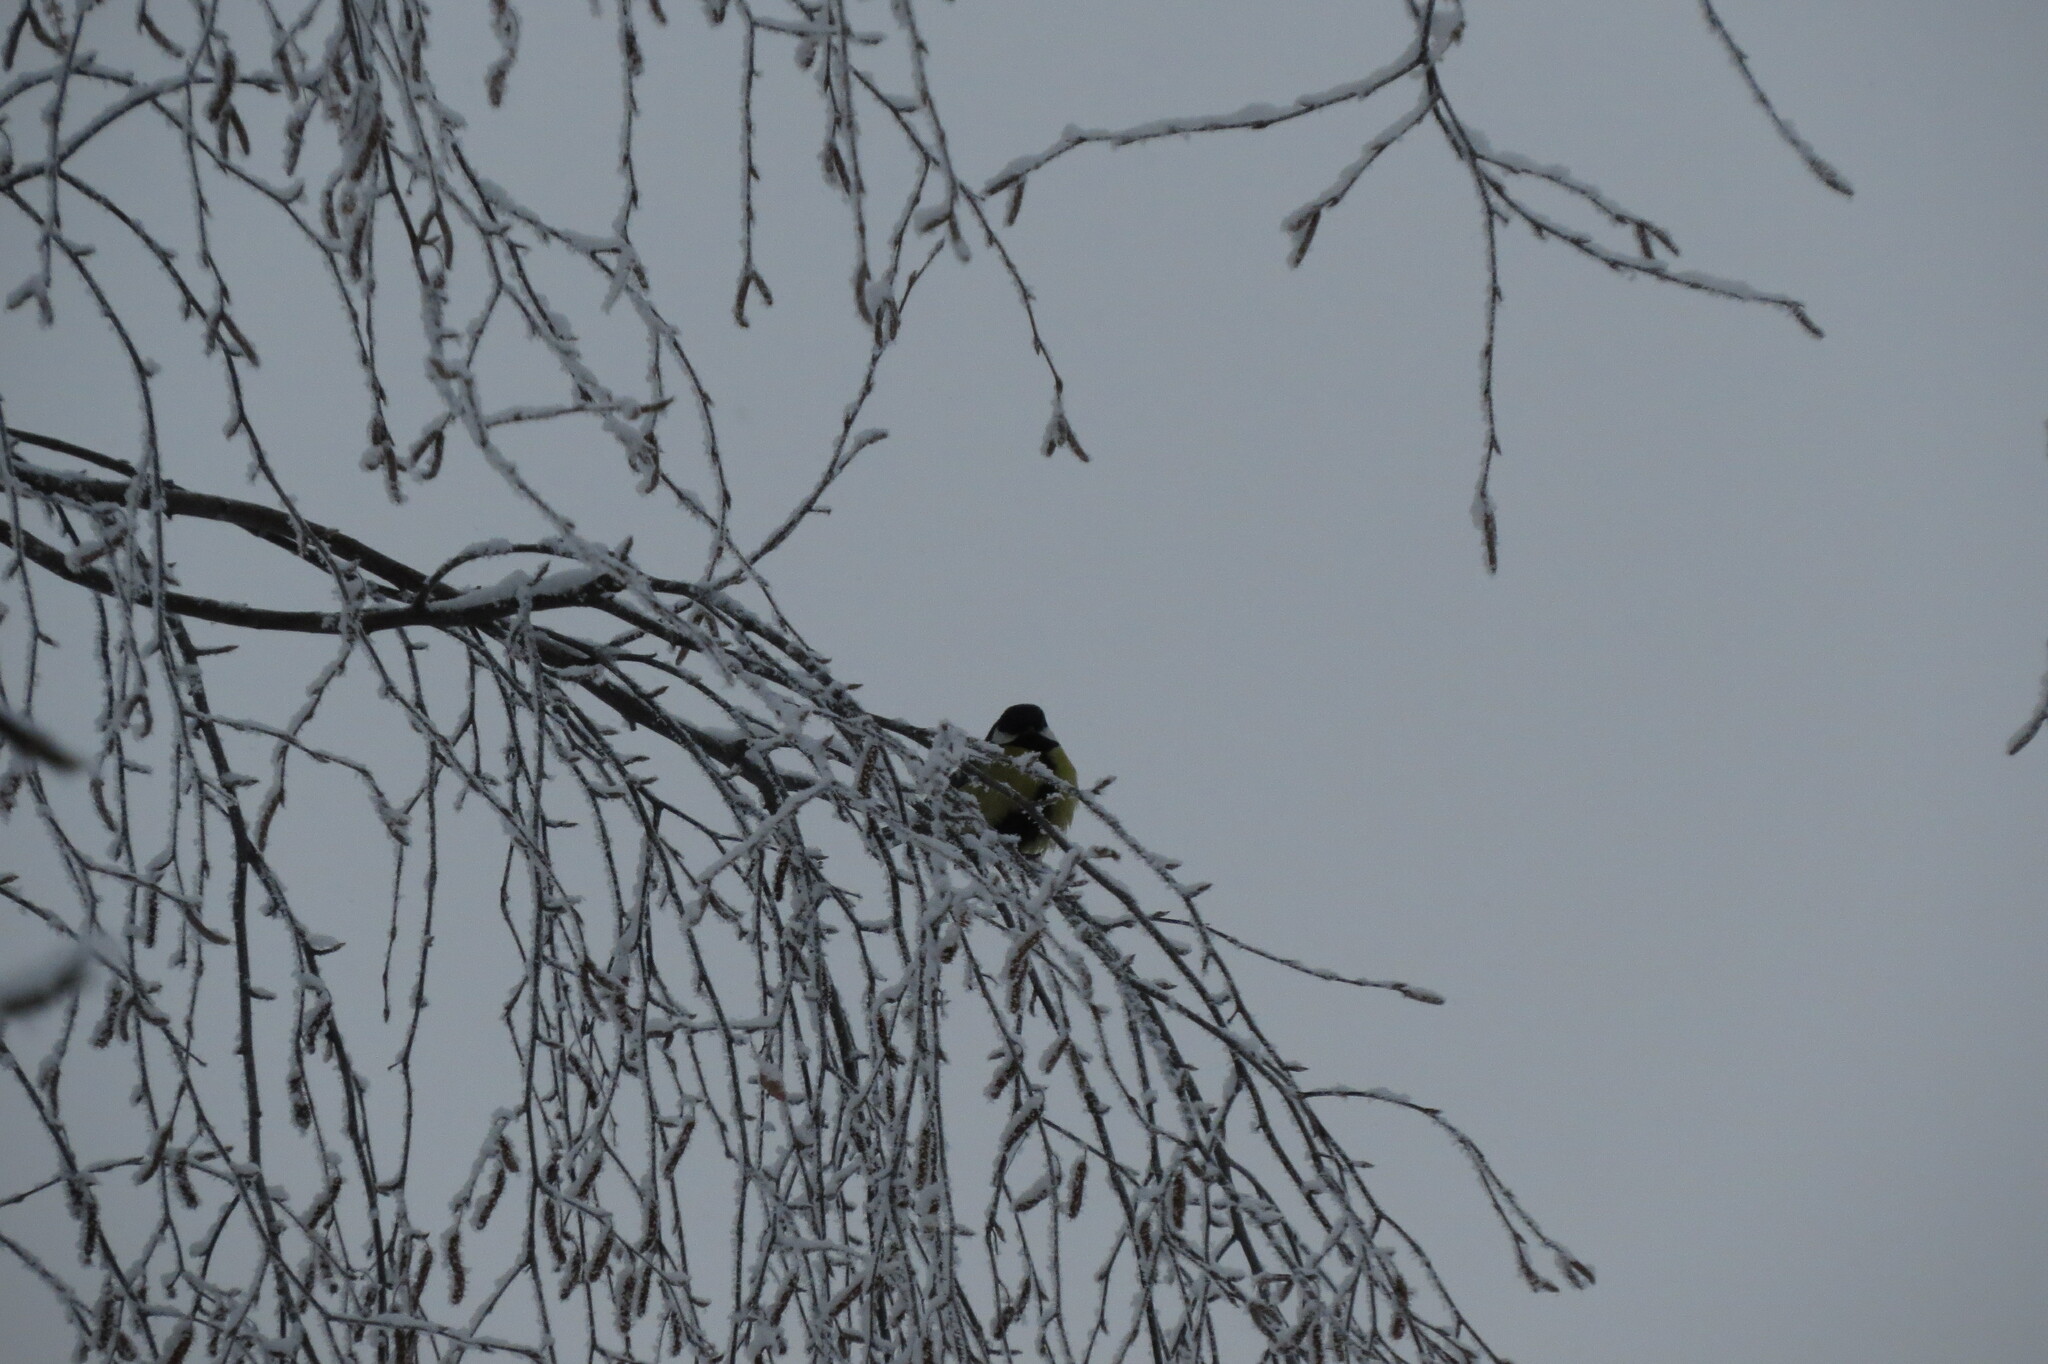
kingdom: Animalia
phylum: Chordata
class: Aves
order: Passeriformes
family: Paridae
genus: Parus
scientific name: Parus major
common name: Great tit
